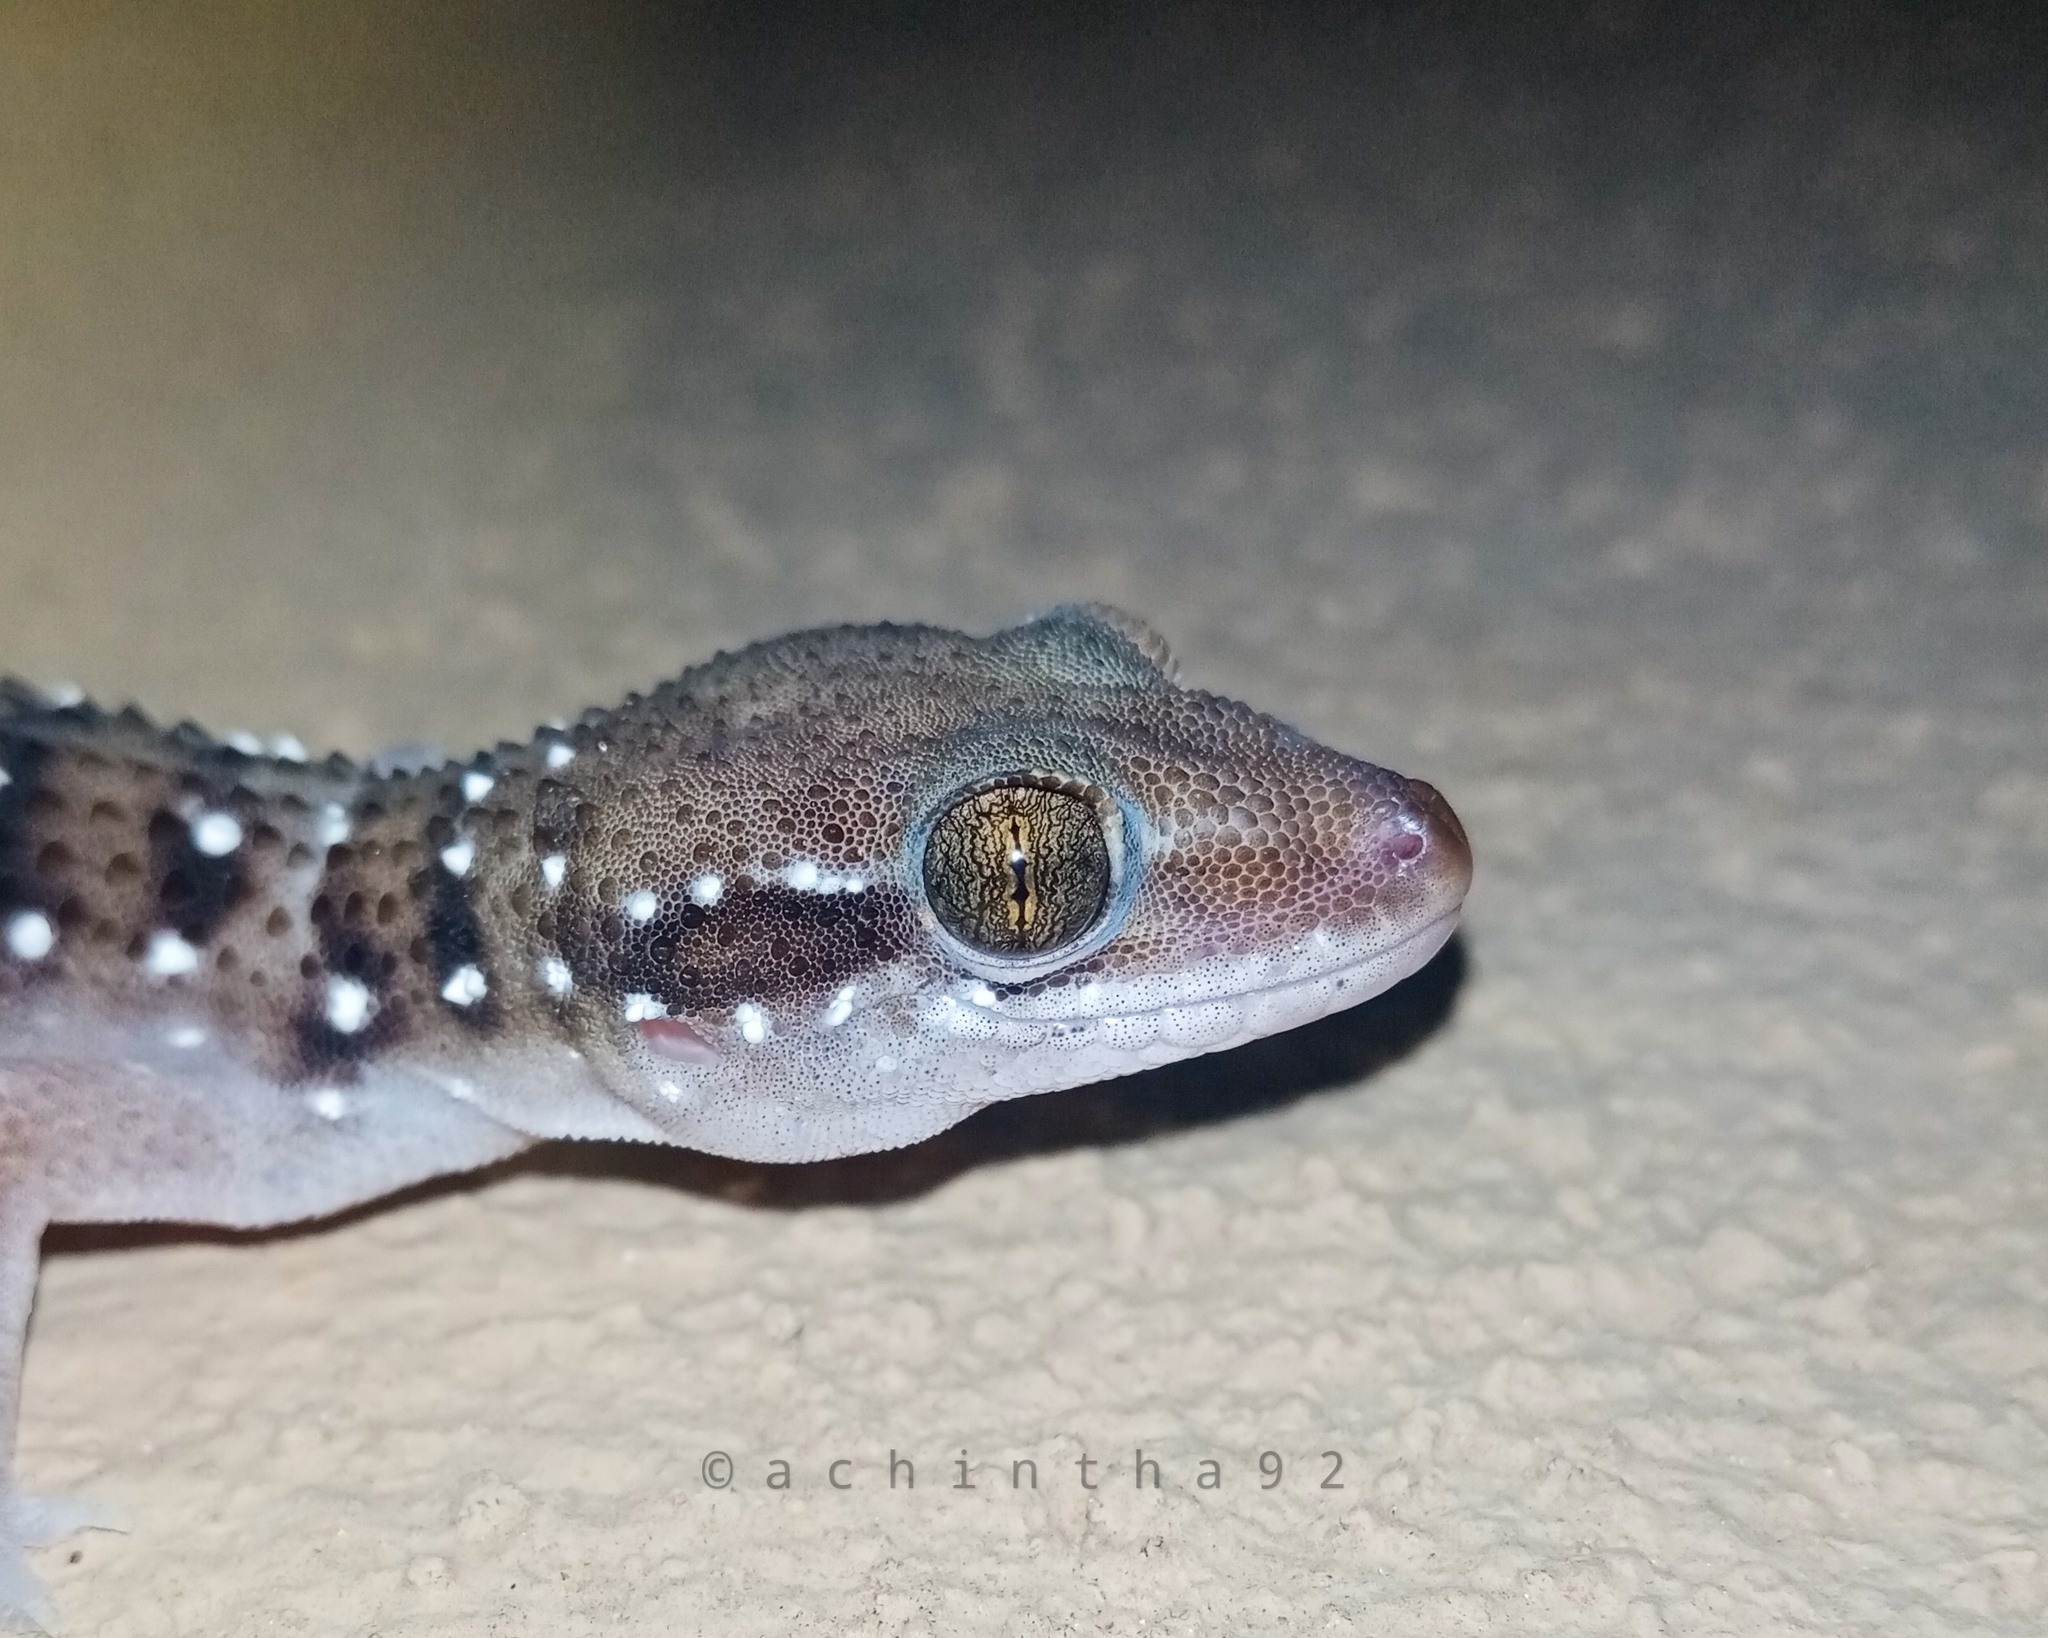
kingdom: Animalia
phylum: Chordata
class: Squamata
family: Gekkonidae
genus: Hemidactylus
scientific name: Hemidactylus triedrus
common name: Blotched house gecko
